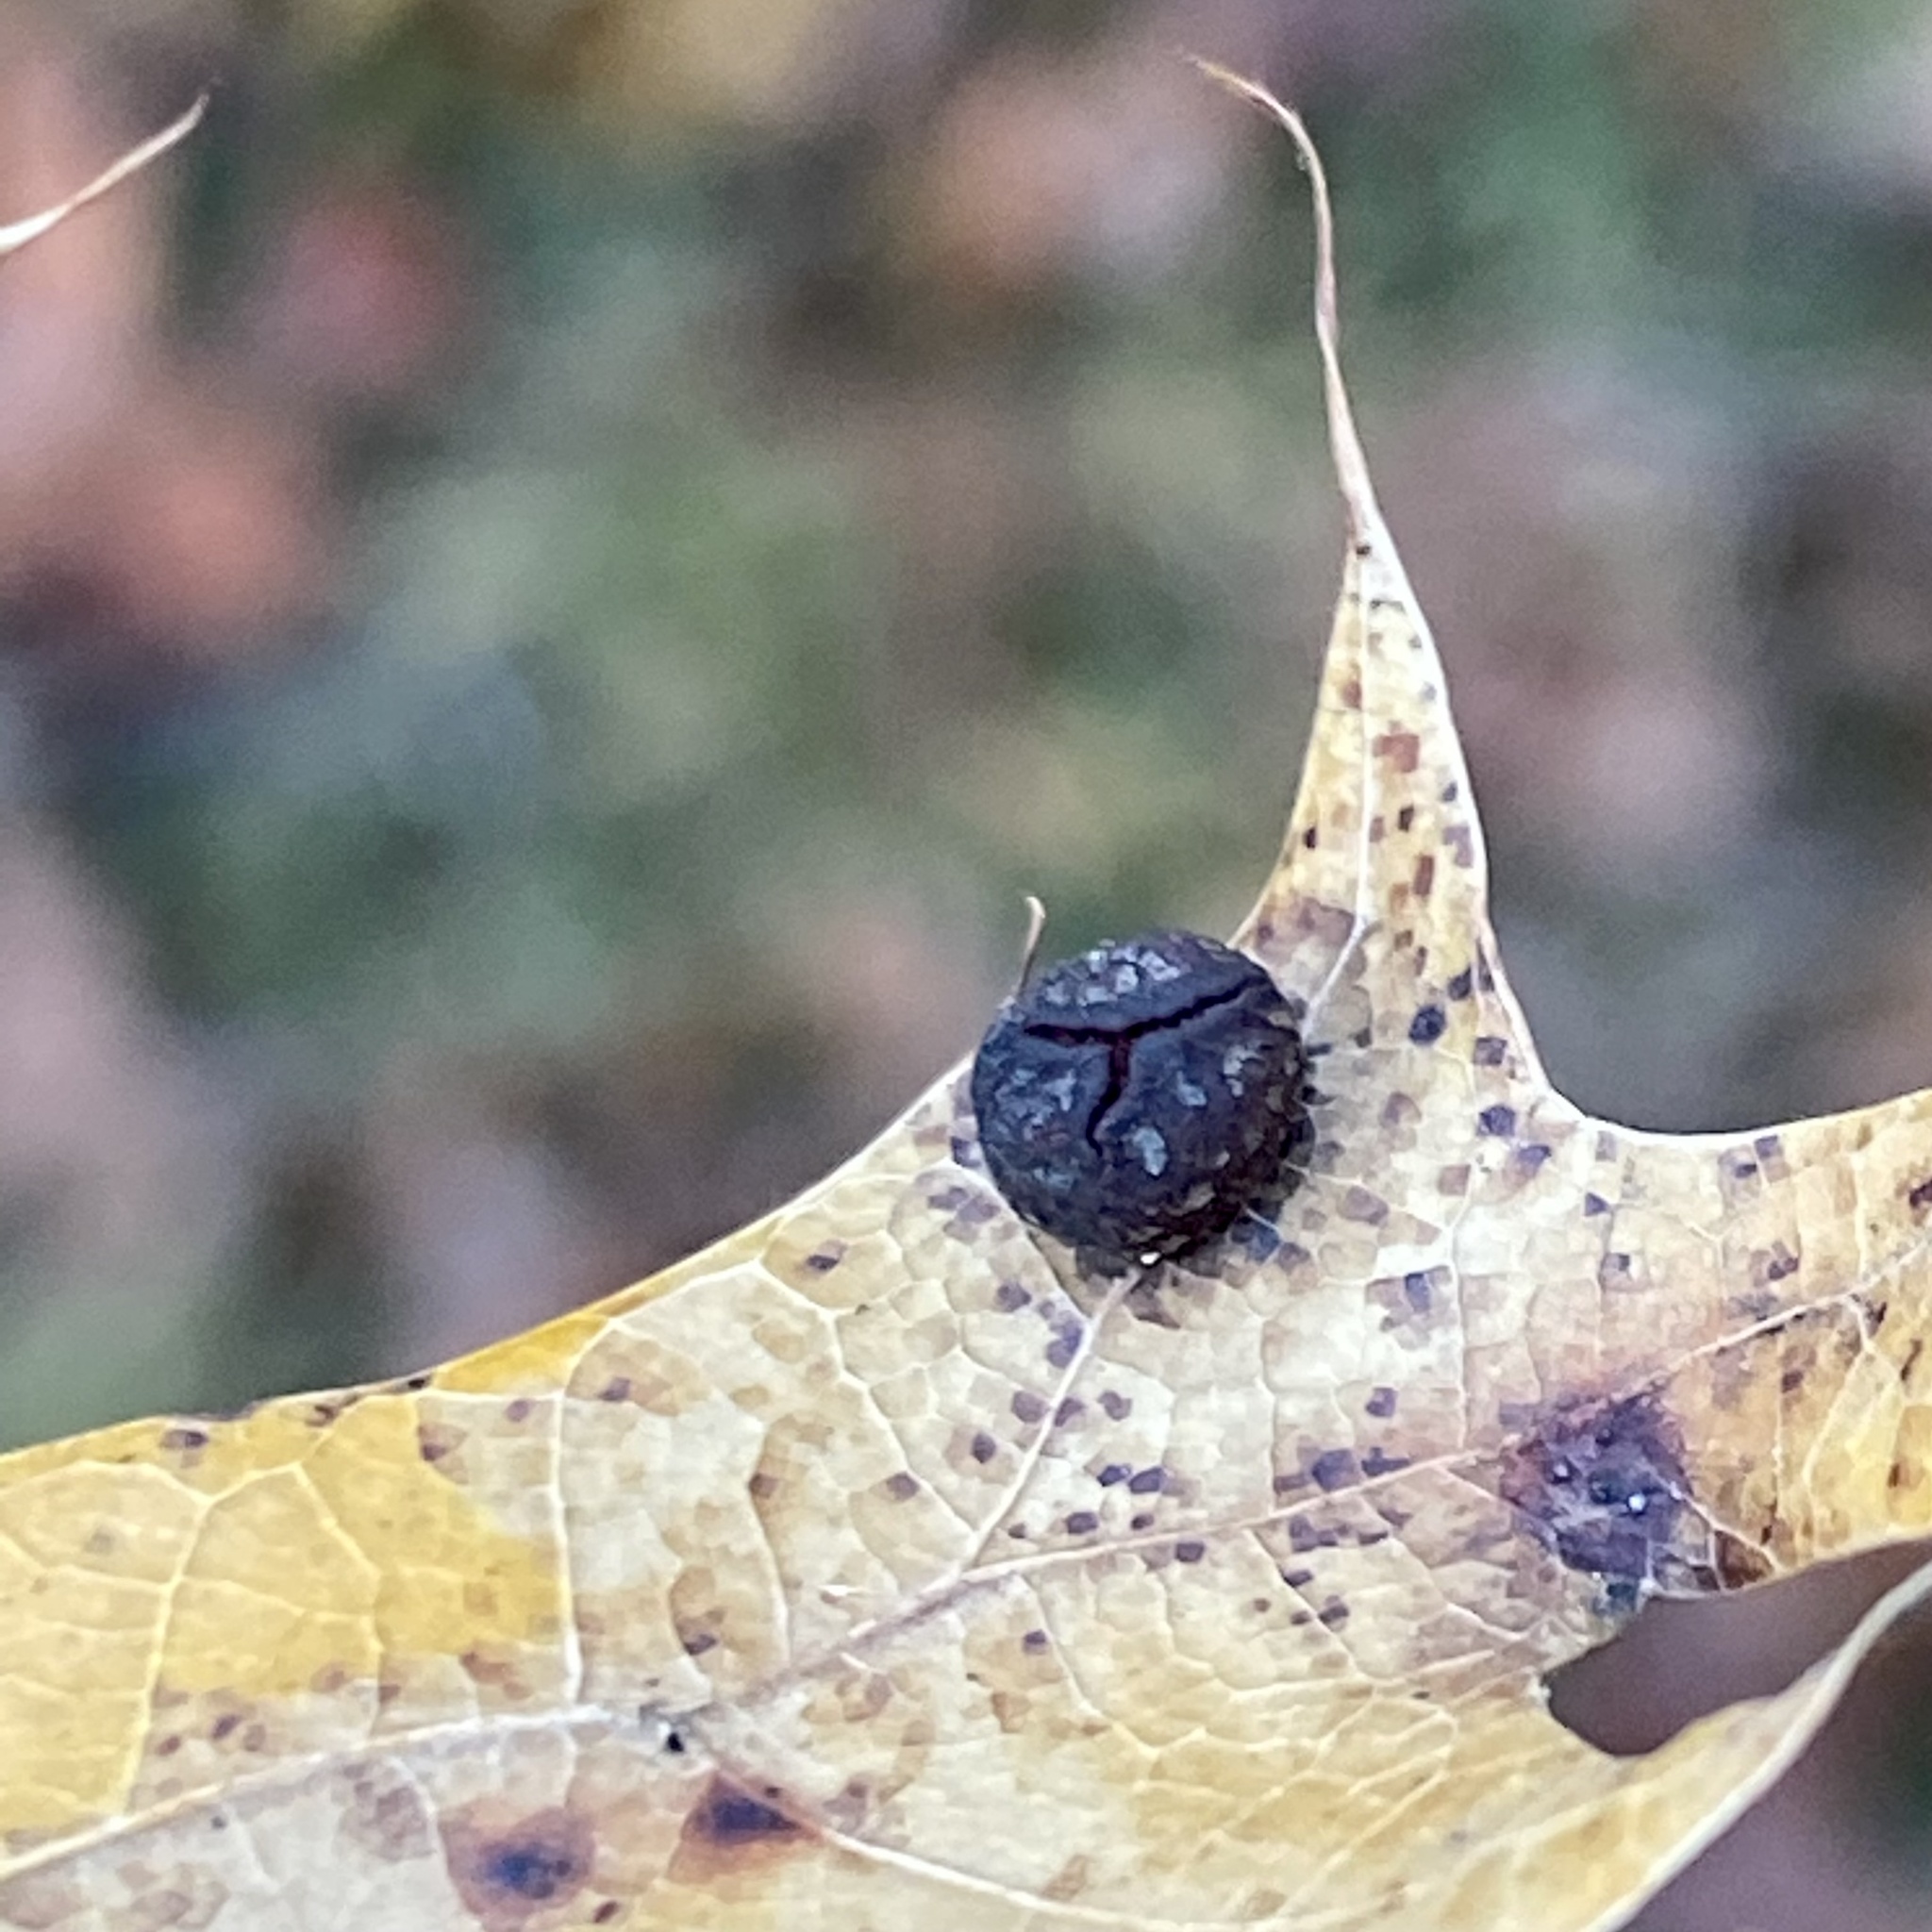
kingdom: Animalia
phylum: Arthropoda
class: Insecta
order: Diptera
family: Cecidomyiidae
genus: Polystepha
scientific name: Polystepha pilulae
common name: Oak leaf gall midge
